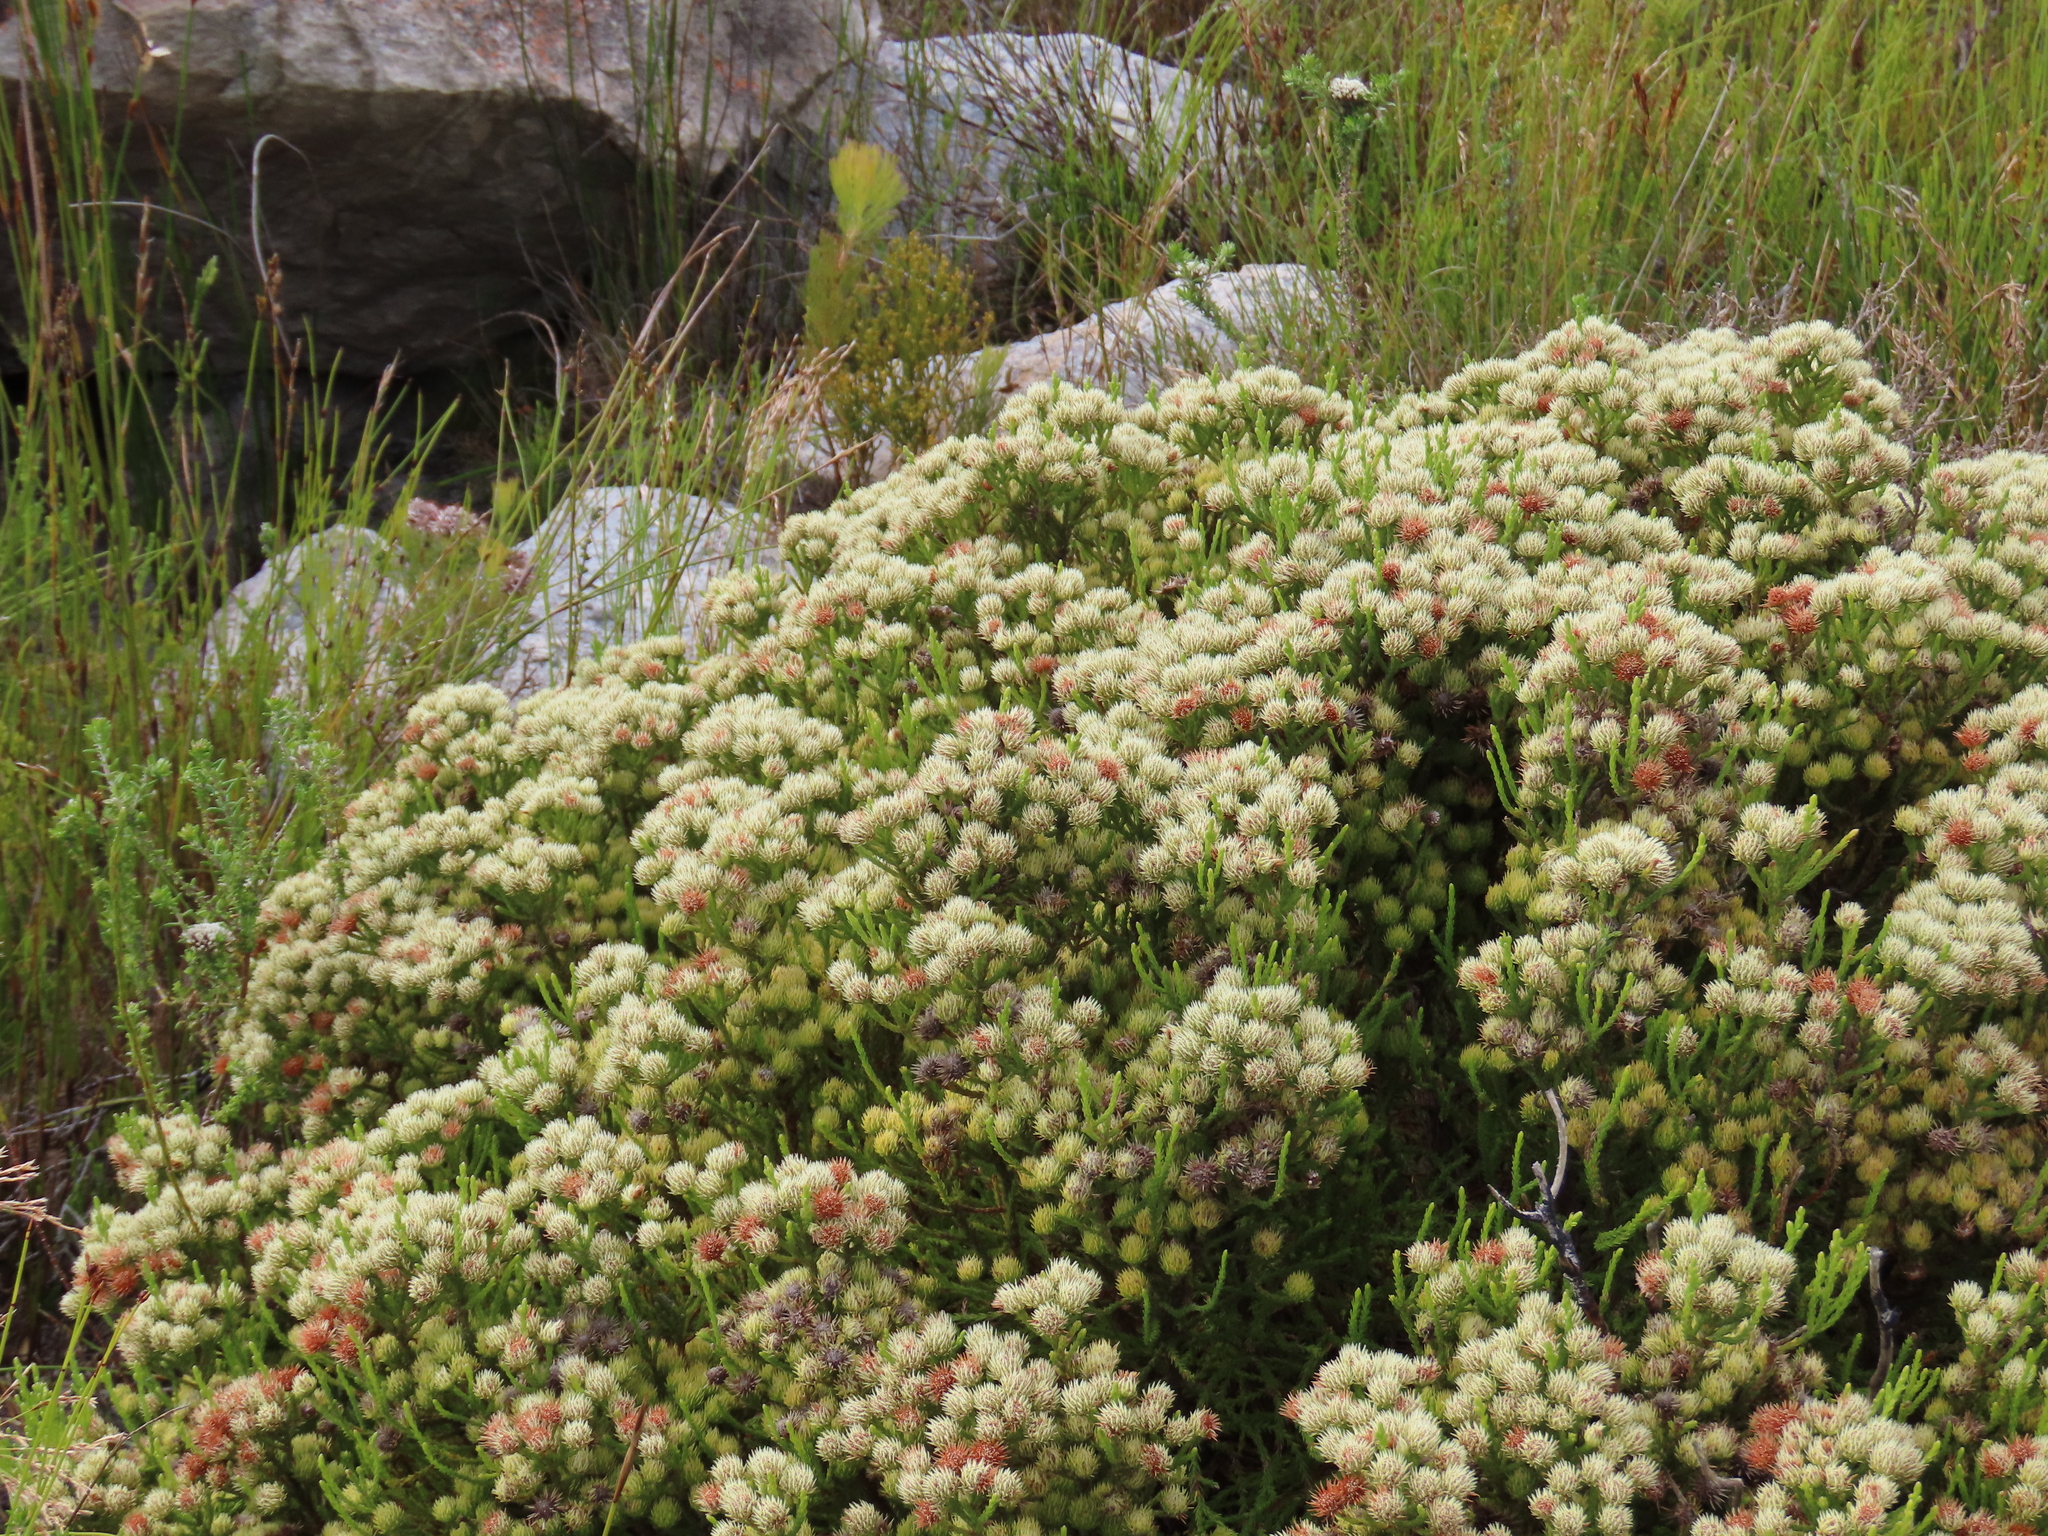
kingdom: Plantae
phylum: Tracheophyta
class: Magnoliopsida
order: Bruniales
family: Bruniaceae
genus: Brunia
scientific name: Brunia paleacea
